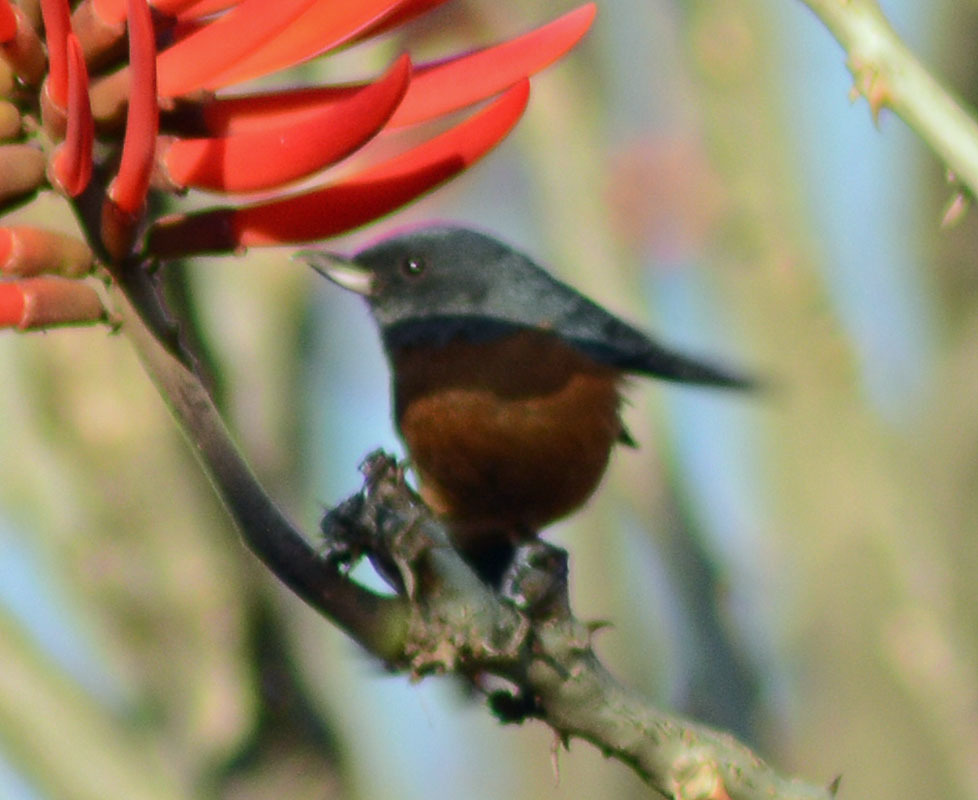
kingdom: Animalia
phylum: Chordata
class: Aves
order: Passeriformes
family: Thraupidae
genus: Diglossa
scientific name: Diglossa baritula
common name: Cinnamon-bellied flowerpiercer
